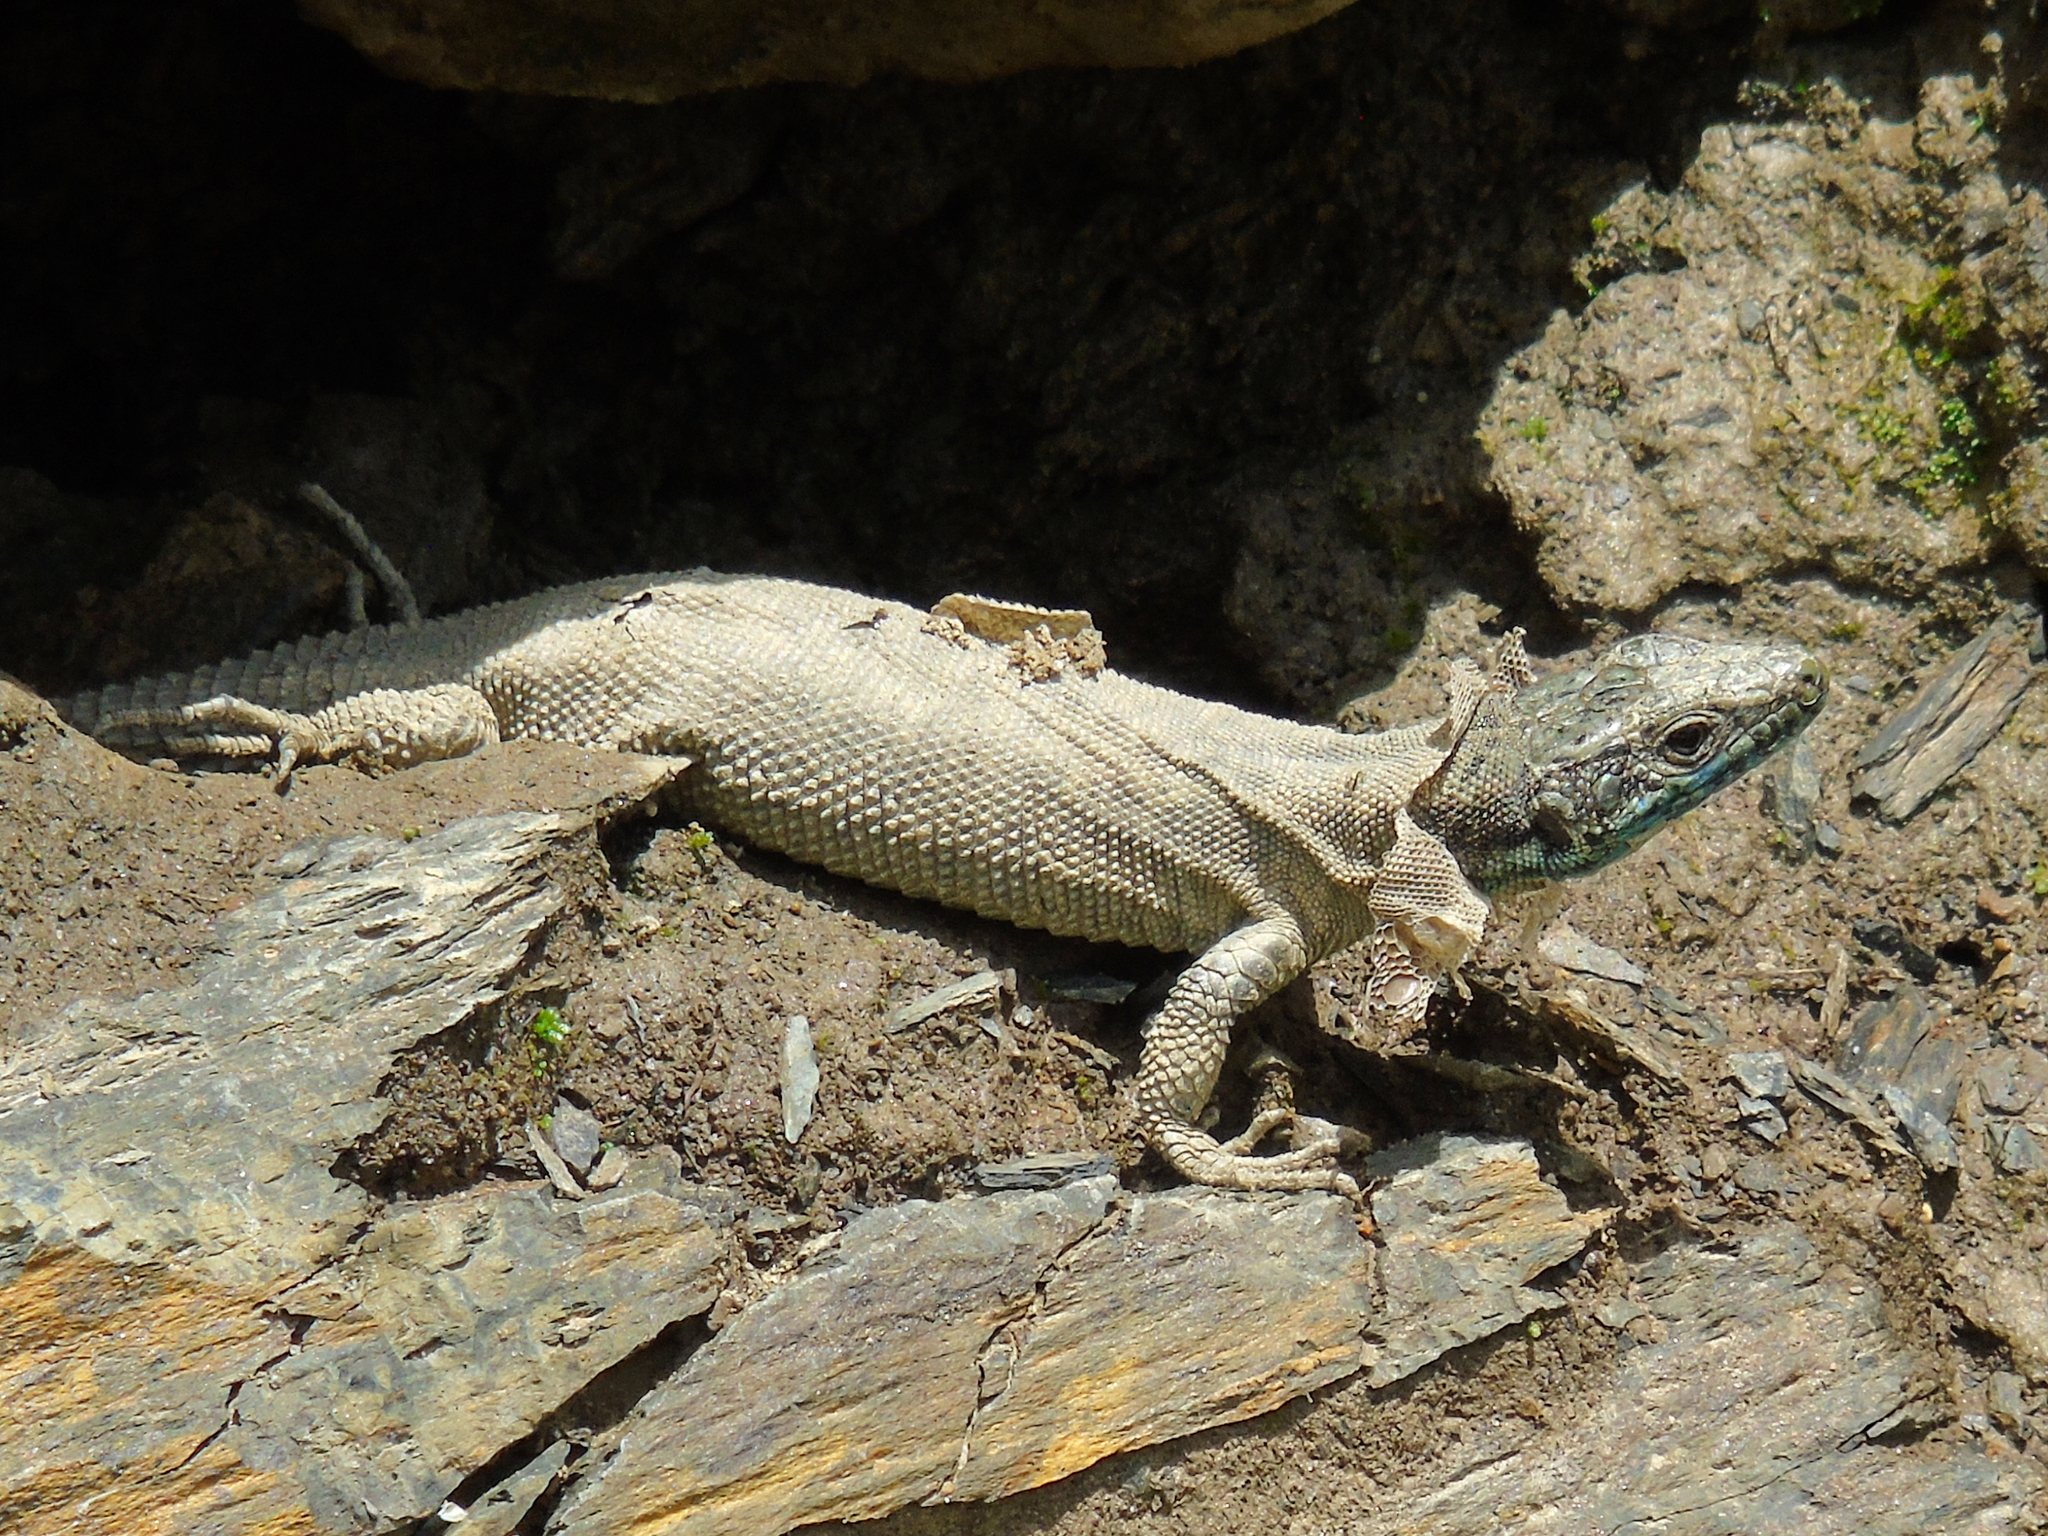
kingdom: Animalia
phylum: Chordata
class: Squamata
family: Lacertidae
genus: Darevskia
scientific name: Darevskia rudis
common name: Spiny-tailed lizard
